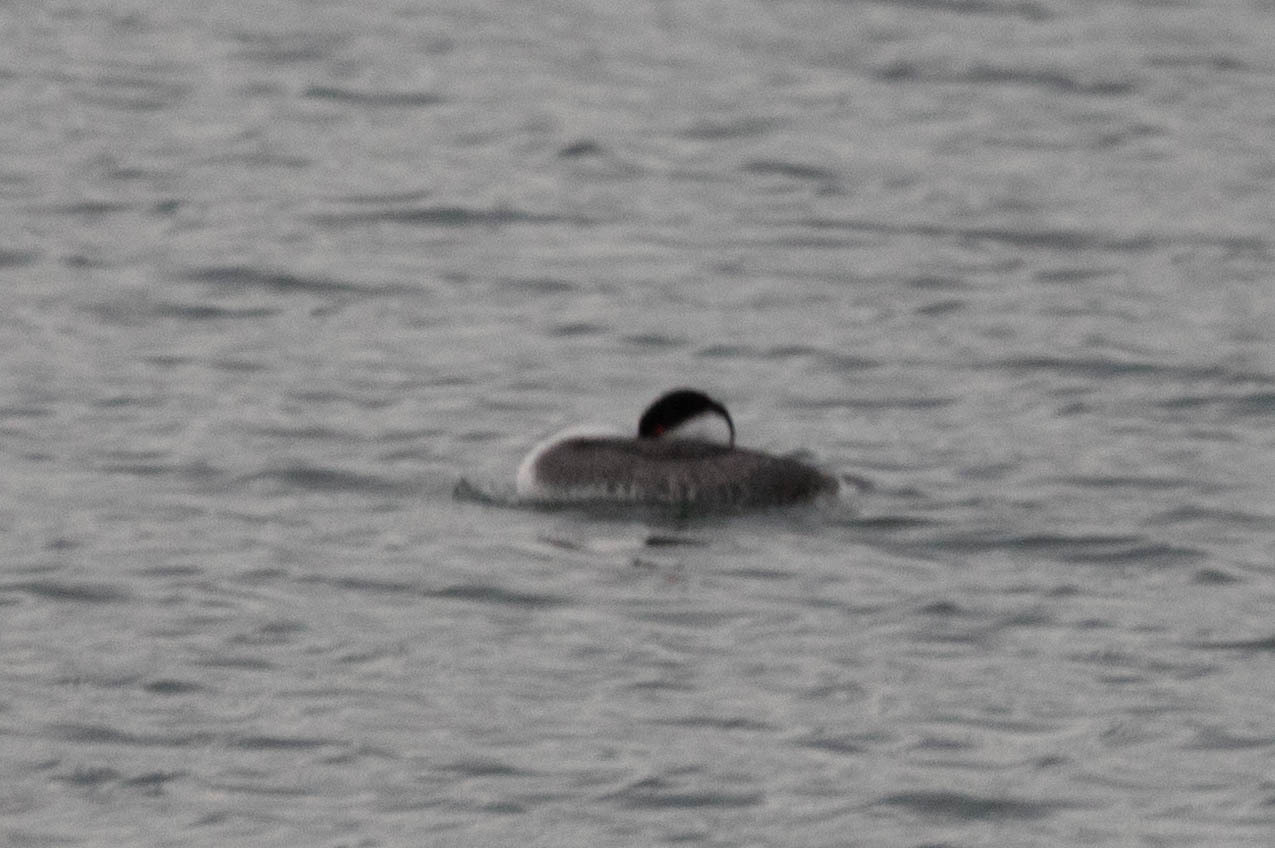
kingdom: Animalia
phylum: Chordata
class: Aves
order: Podicipediformes
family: Podicipedidae
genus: Aechmophorus
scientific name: Aechmophorus occidentalis
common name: Western grebe
